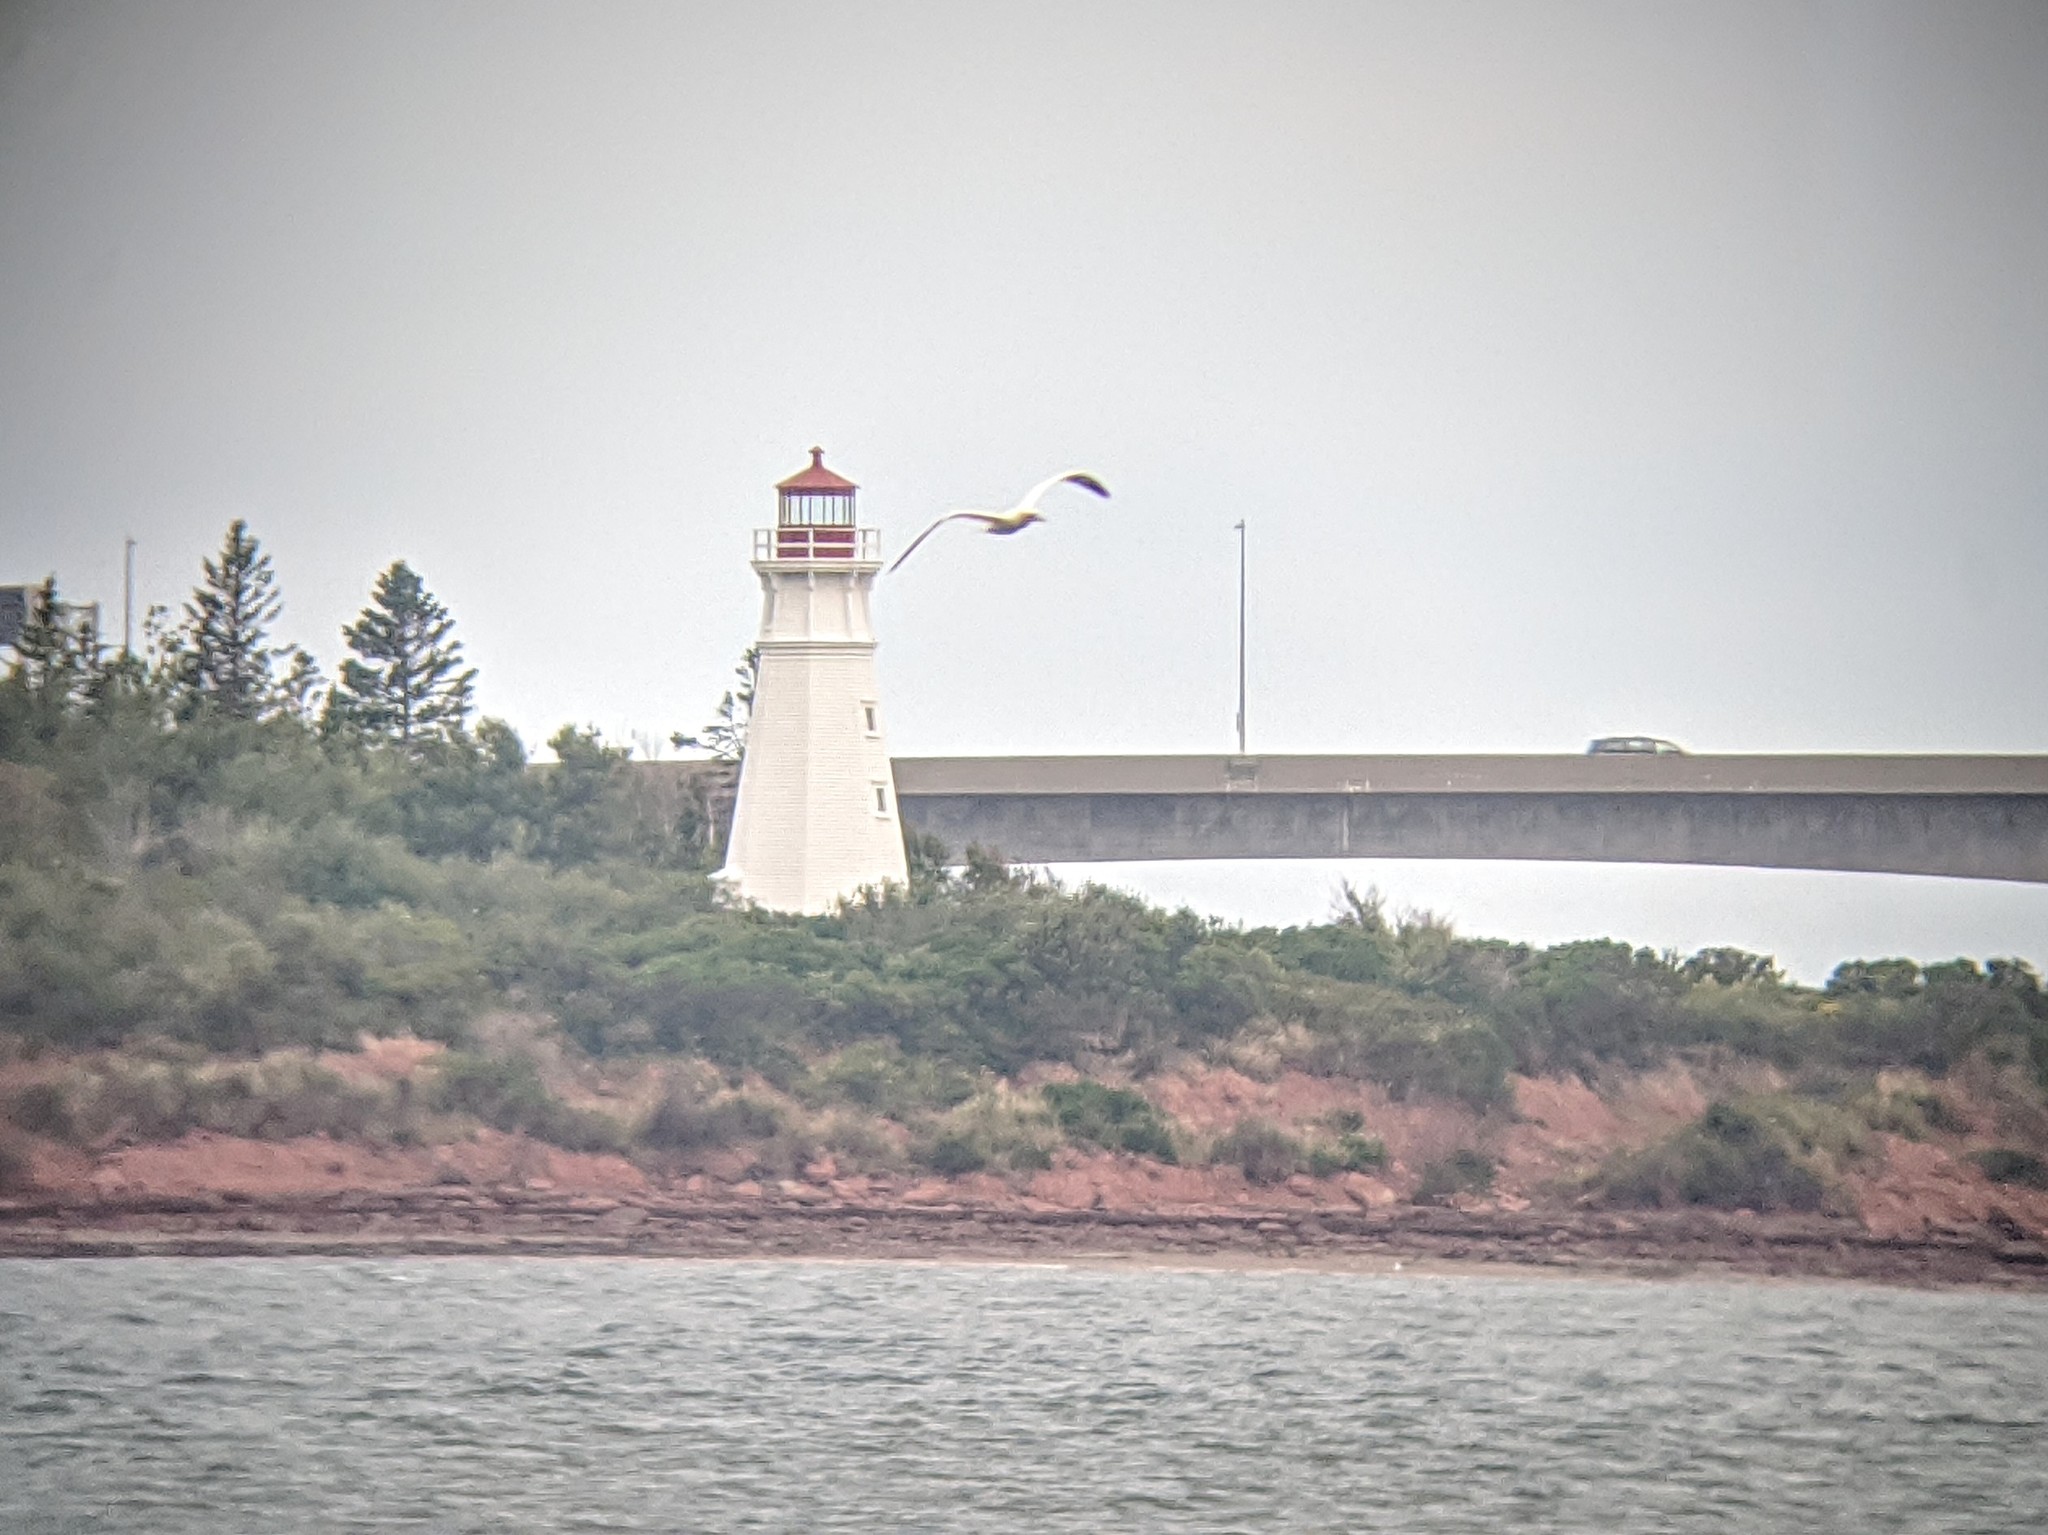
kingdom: Animalia
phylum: Chordata
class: Aves
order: Suliformes
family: Sulidae
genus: Morus
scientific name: Morus bassanus
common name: Northern gannet
